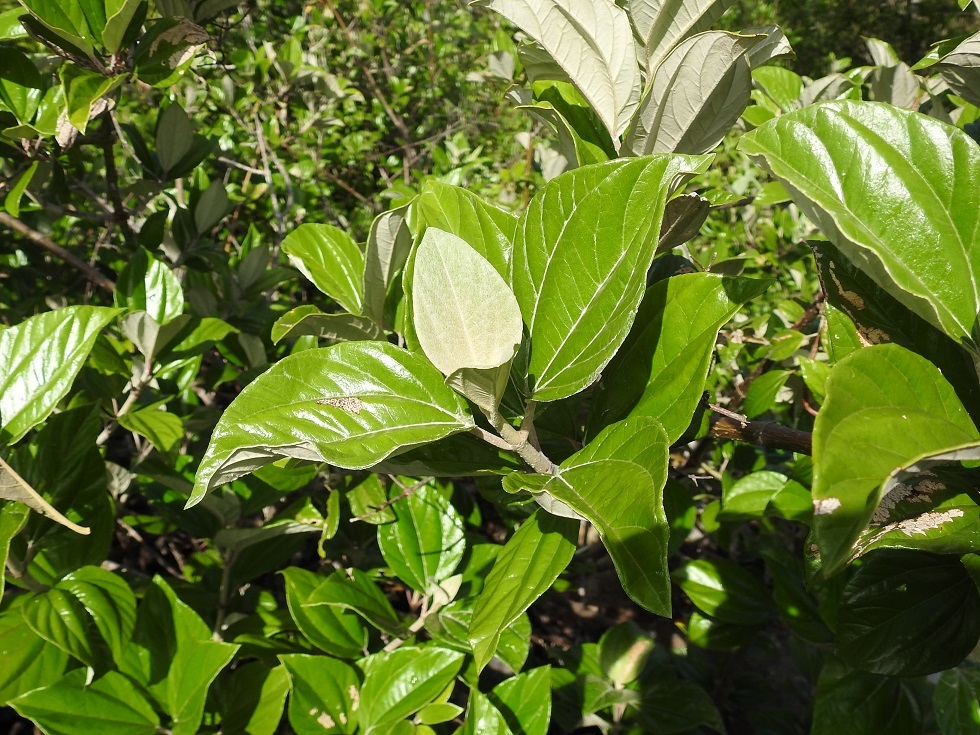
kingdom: Plantae
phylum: Tracheophyta
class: Magnoliopsida
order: Asterales
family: Asteraceae
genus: Sinclairia
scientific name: Sinclairia discolor
